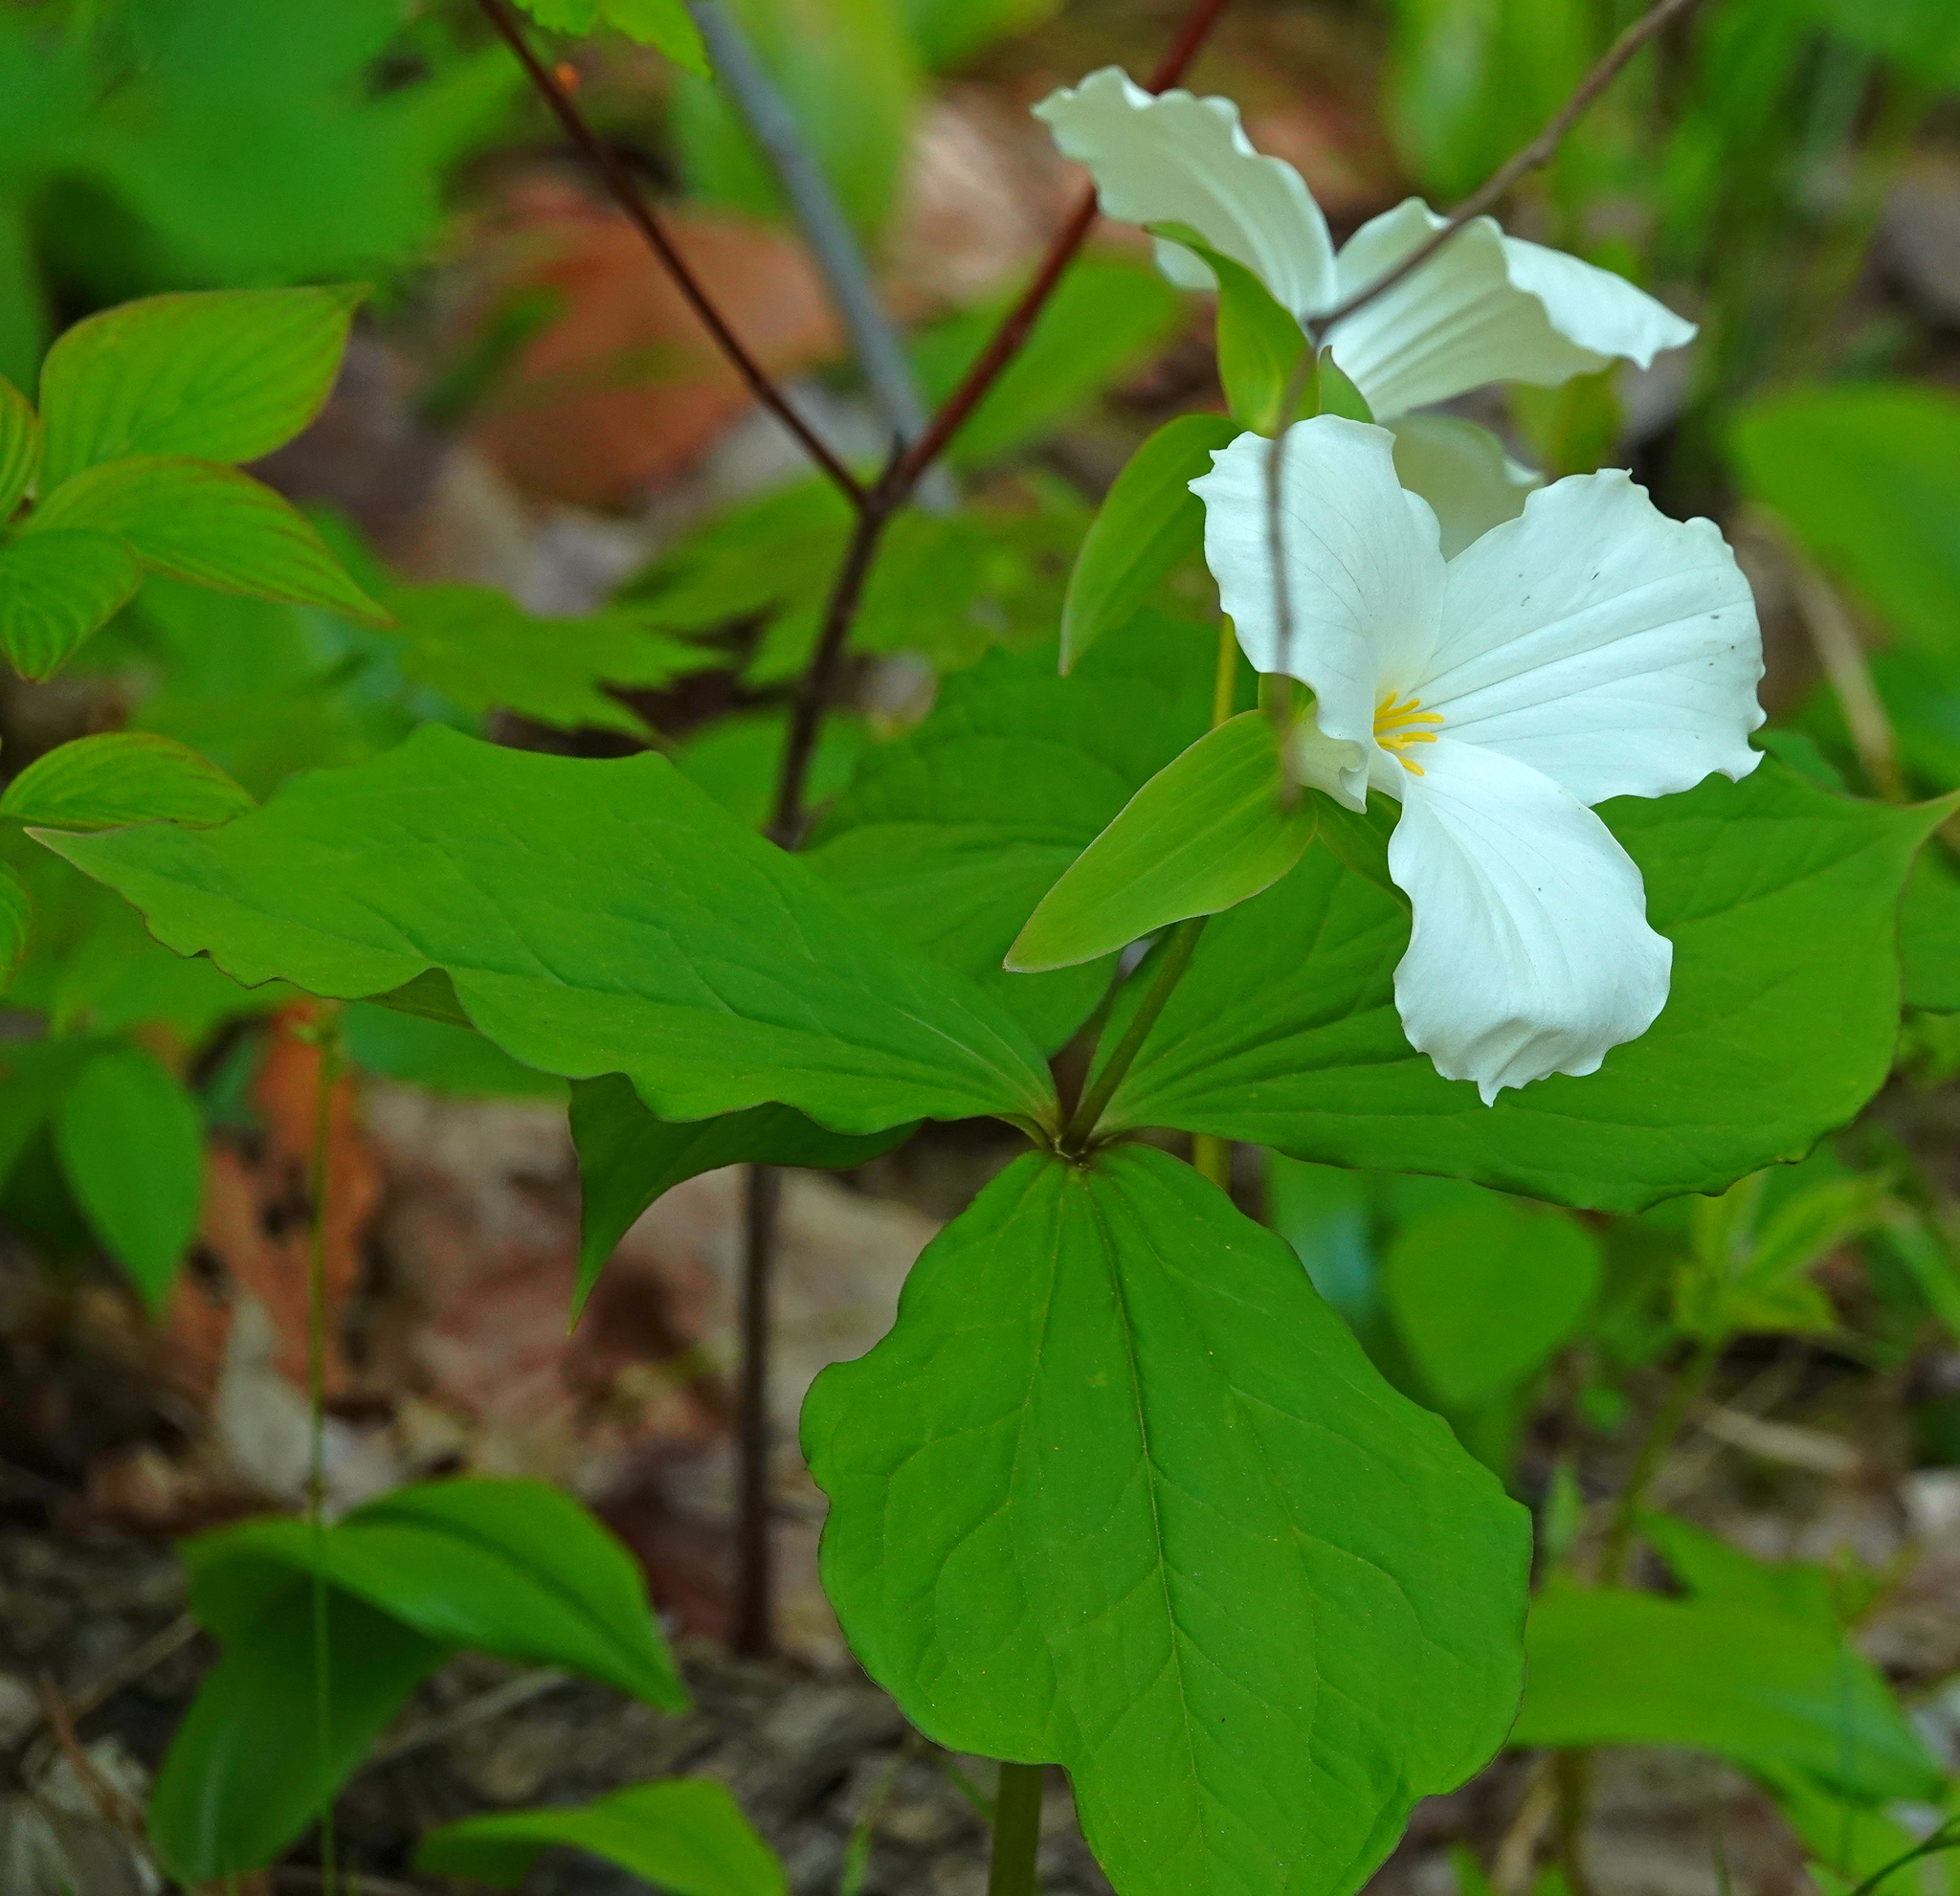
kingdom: Plantae
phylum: Tracheophyta
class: Liliopsida
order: Liliales
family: Melanthiaceae
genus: Trillium
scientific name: Trillium grandiflorum
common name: Great white trillium
